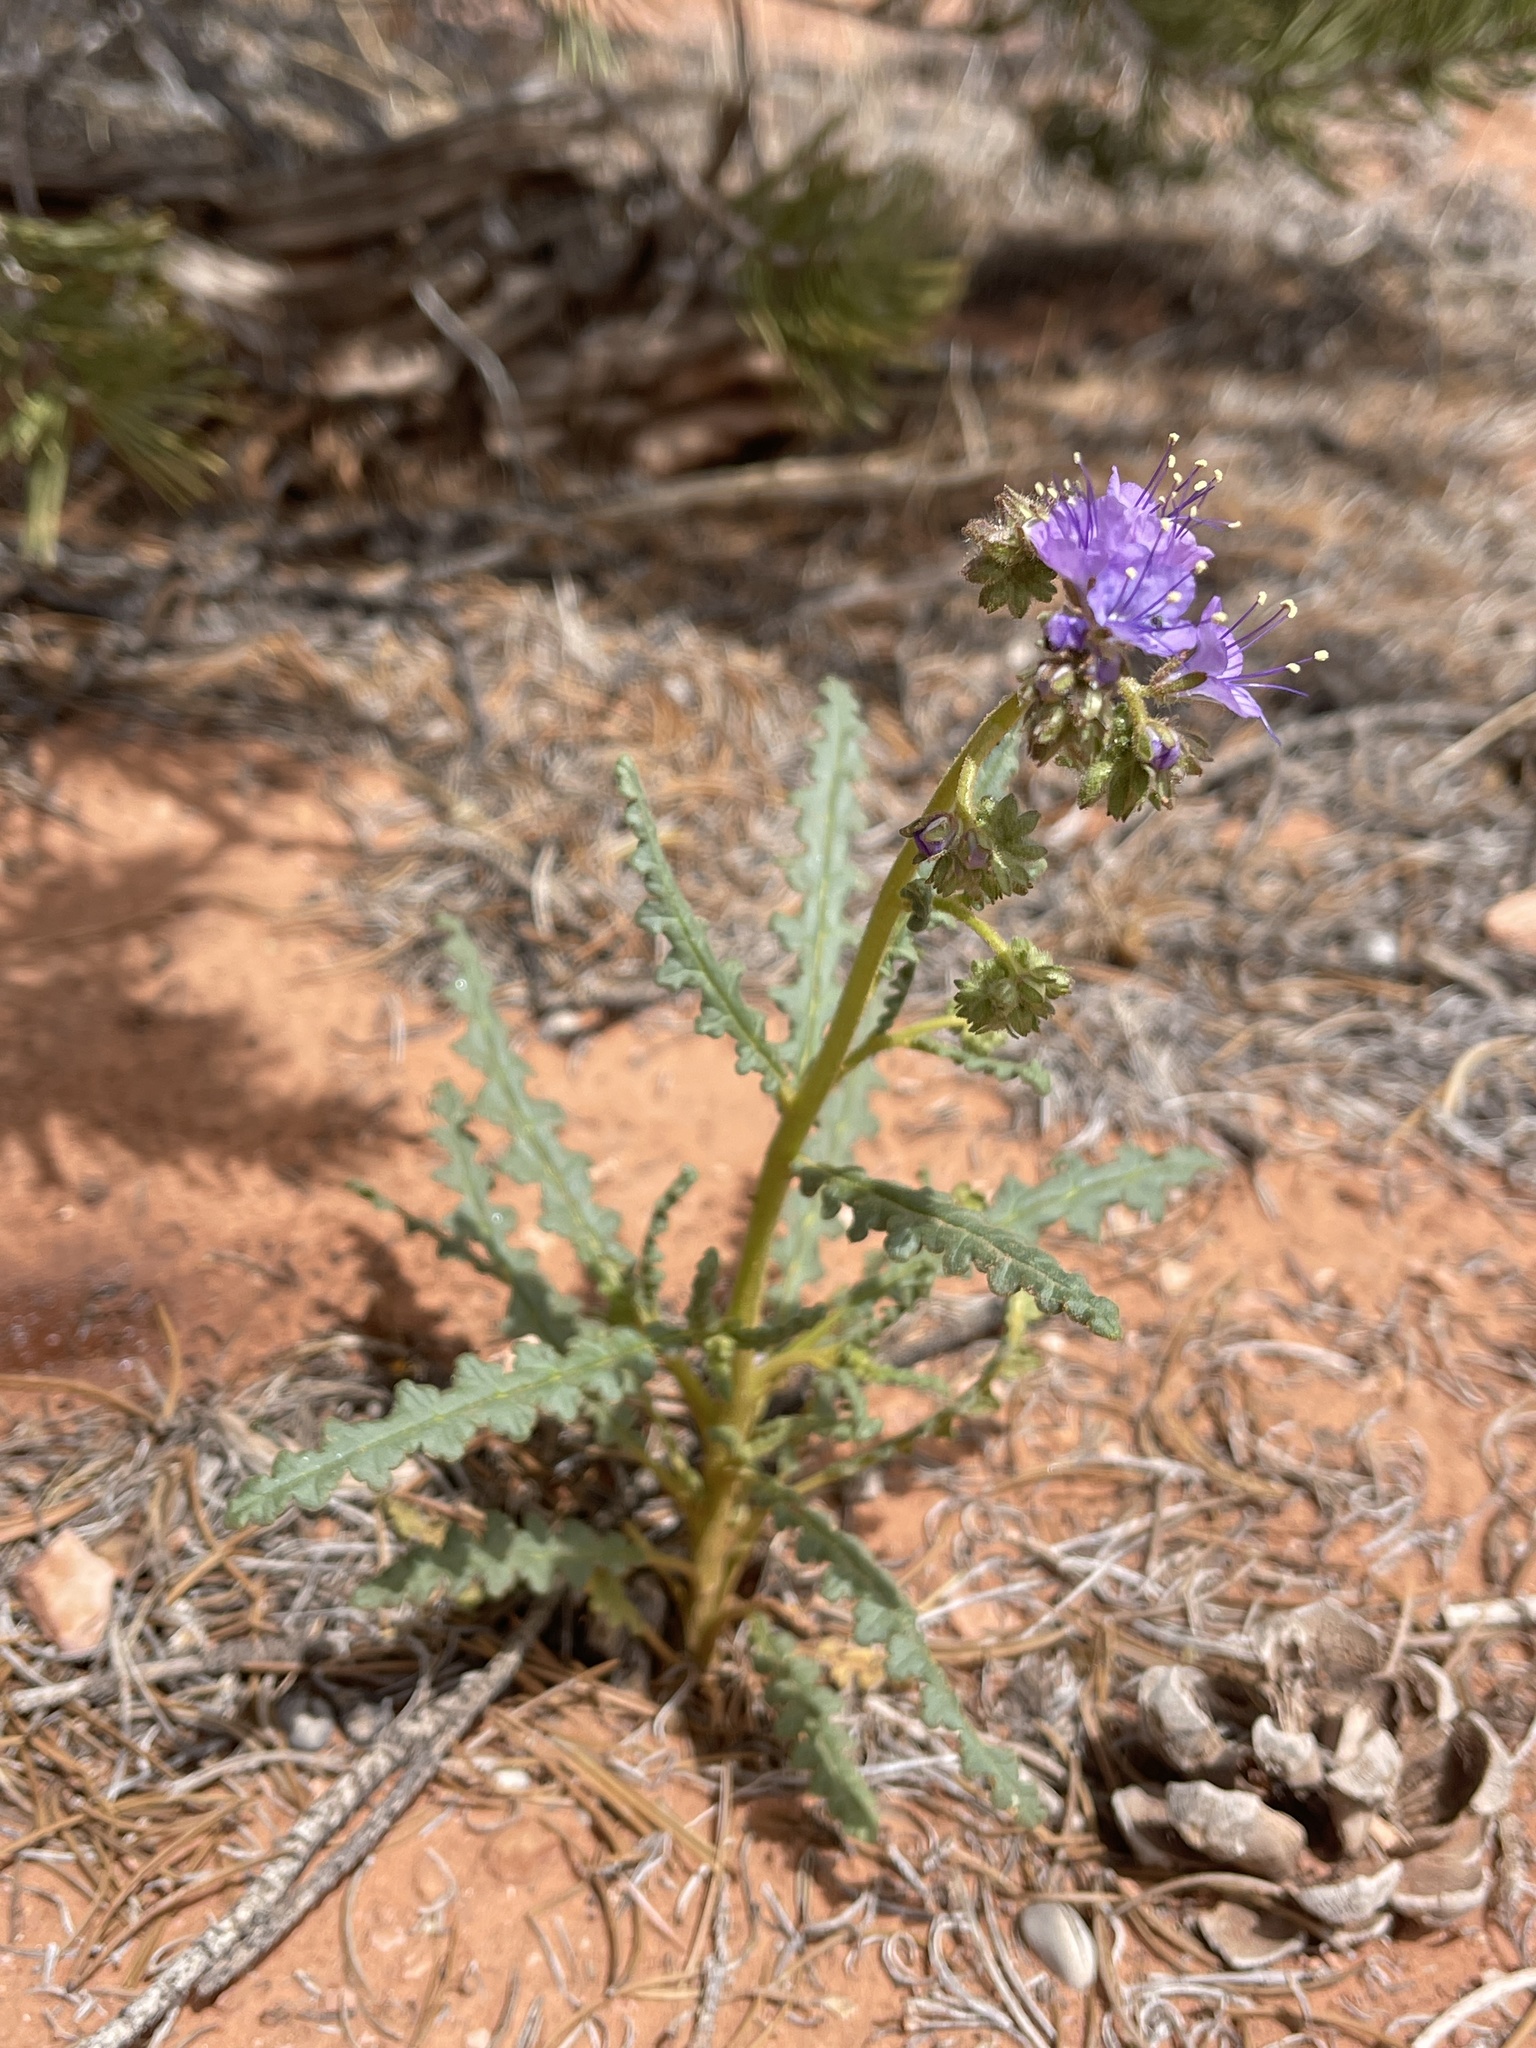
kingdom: Plantae
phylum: Tracheophyta
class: Magnoliopsida
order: Boraginales
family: Hydrophyllaceae
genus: Phacelia
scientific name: Phacelia crenulata
